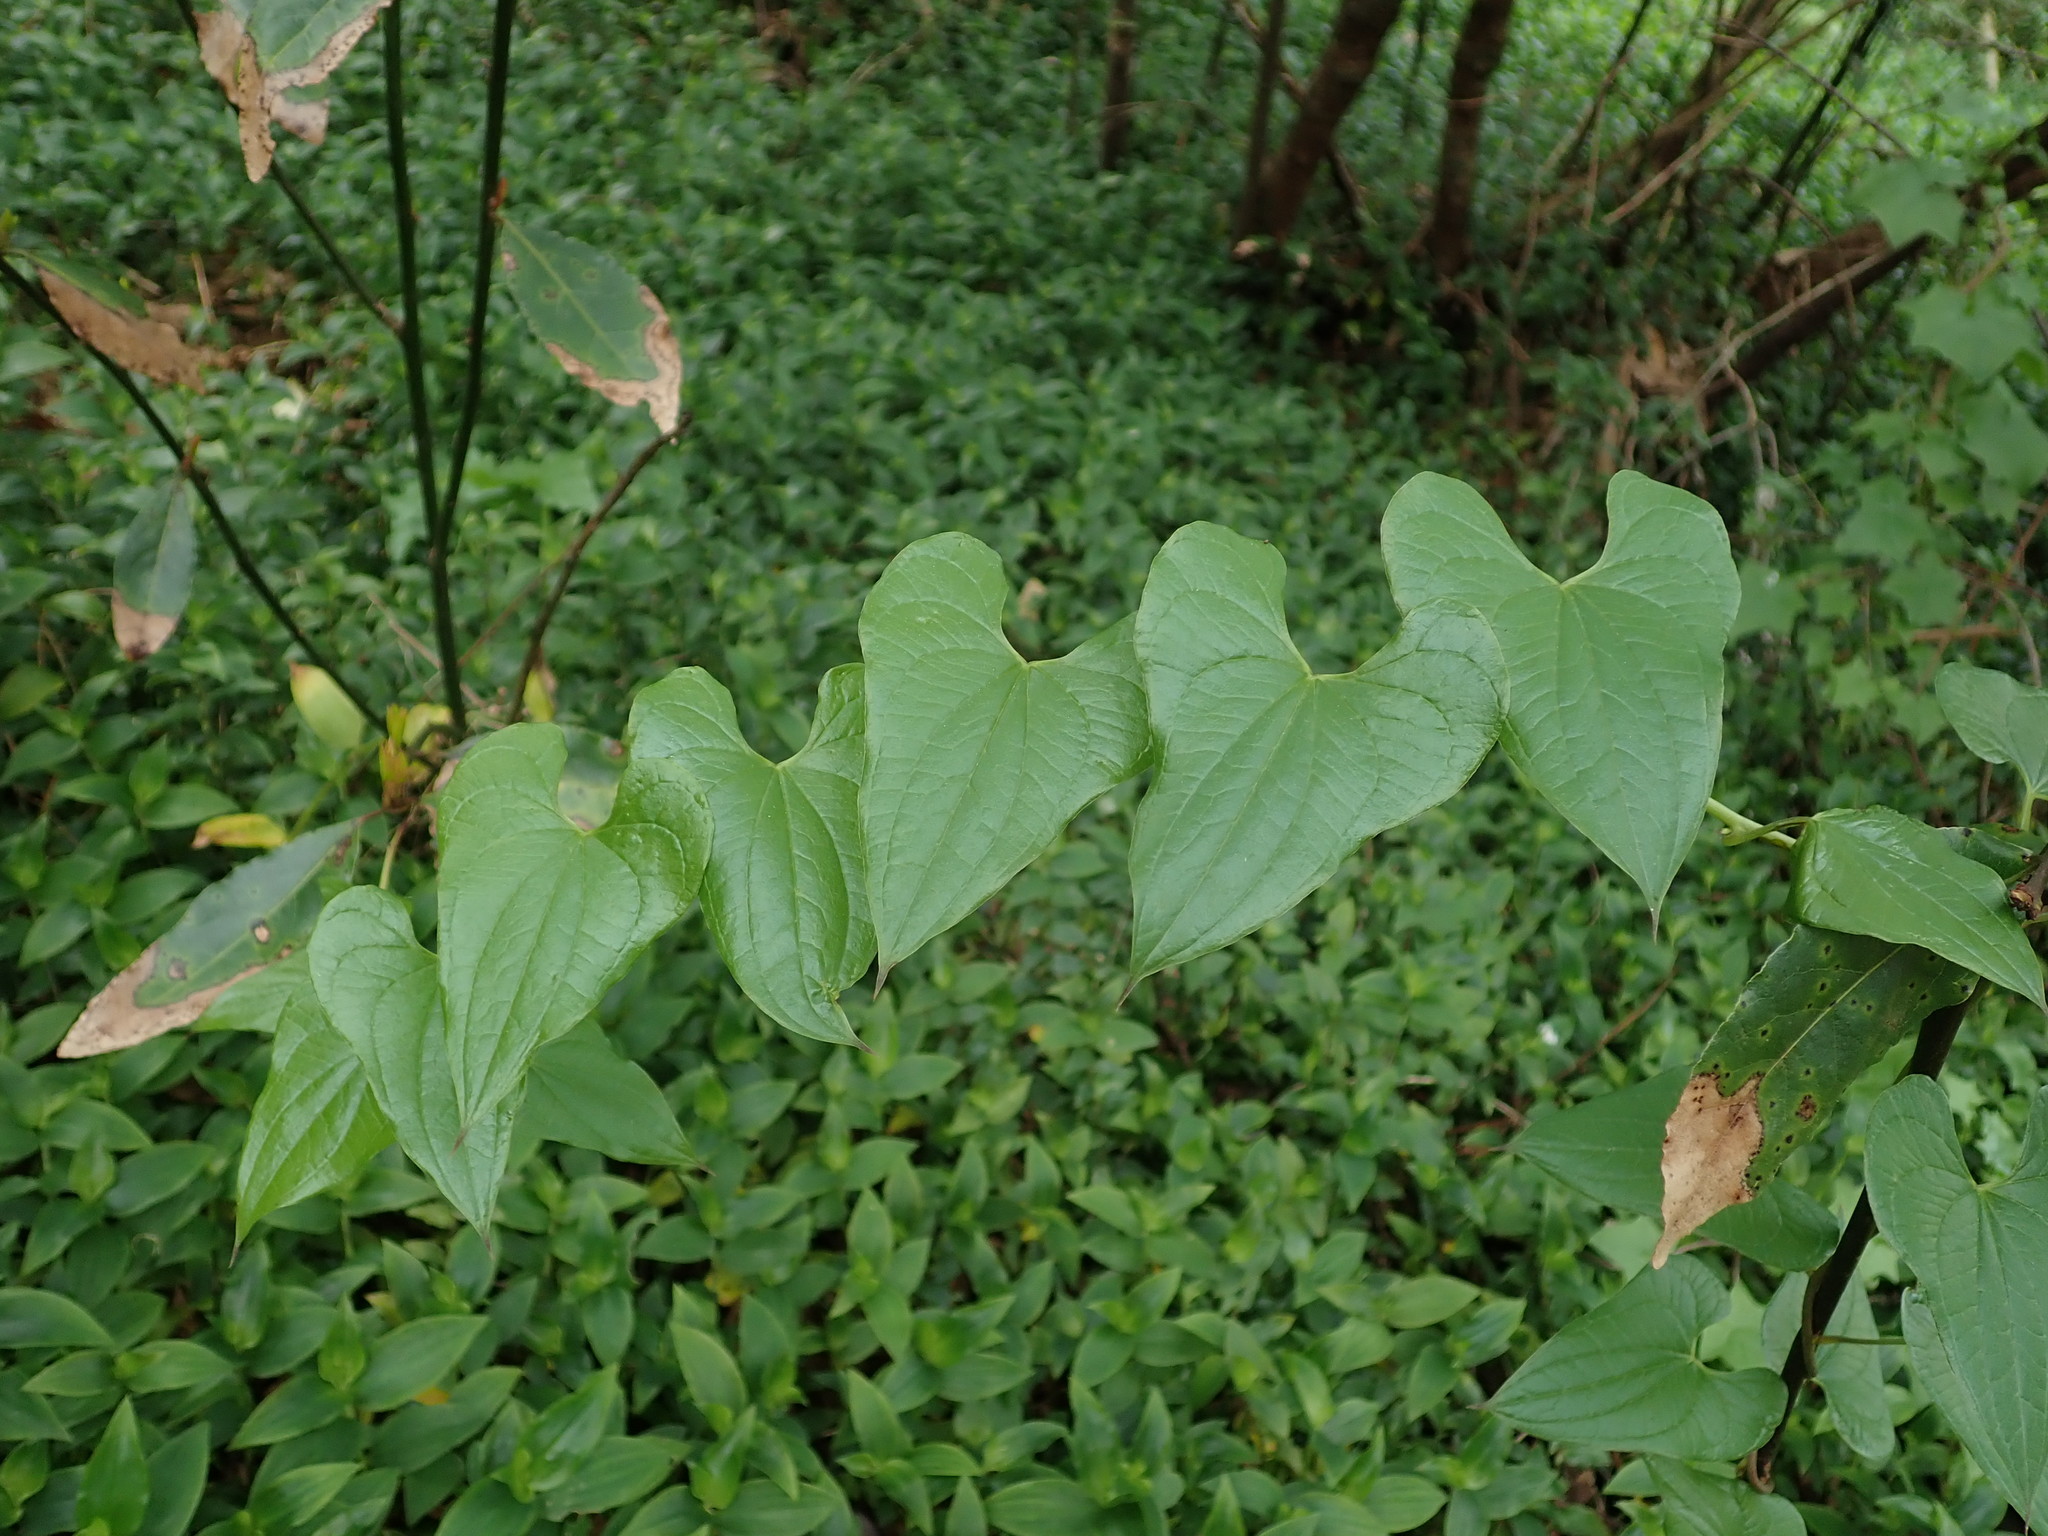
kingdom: Plantae
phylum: Tracheophyta
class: Liliopsida
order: Dioscoreales
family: Dioscoreaceae
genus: Dioscorea
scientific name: Dioscorea communis
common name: Black-bindweed
